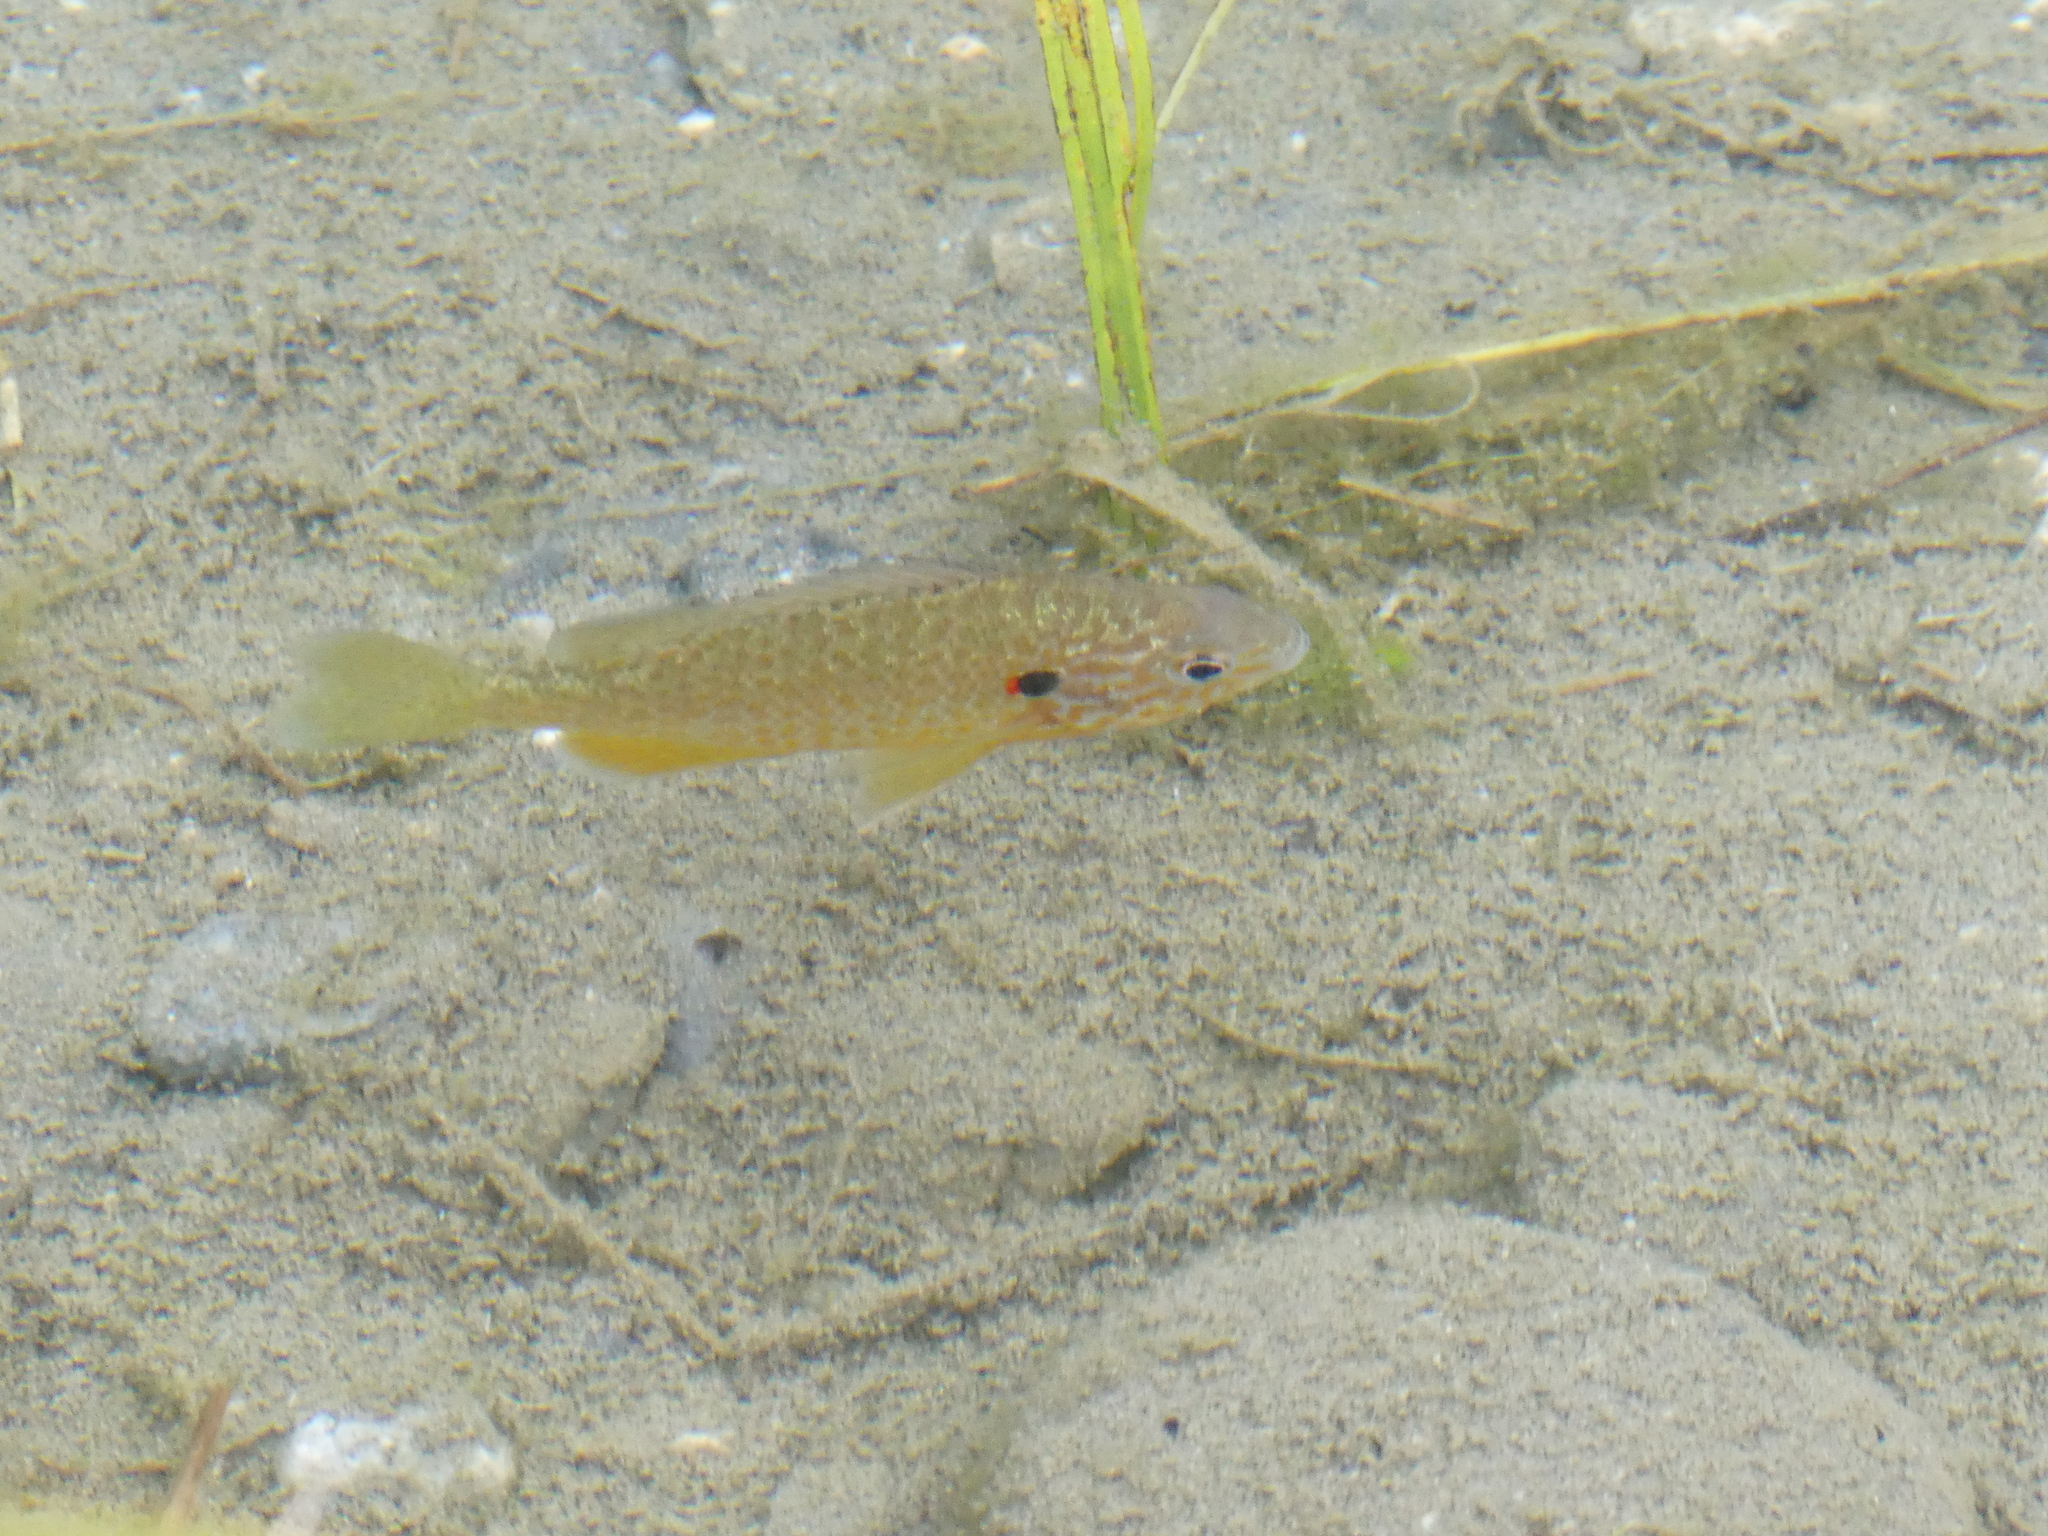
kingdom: Animalia
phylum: Chordata
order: Perciformes
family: Centrarchidae
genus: Lepomis
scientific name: Lepomis gibbosus
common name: Pumpkinseed
